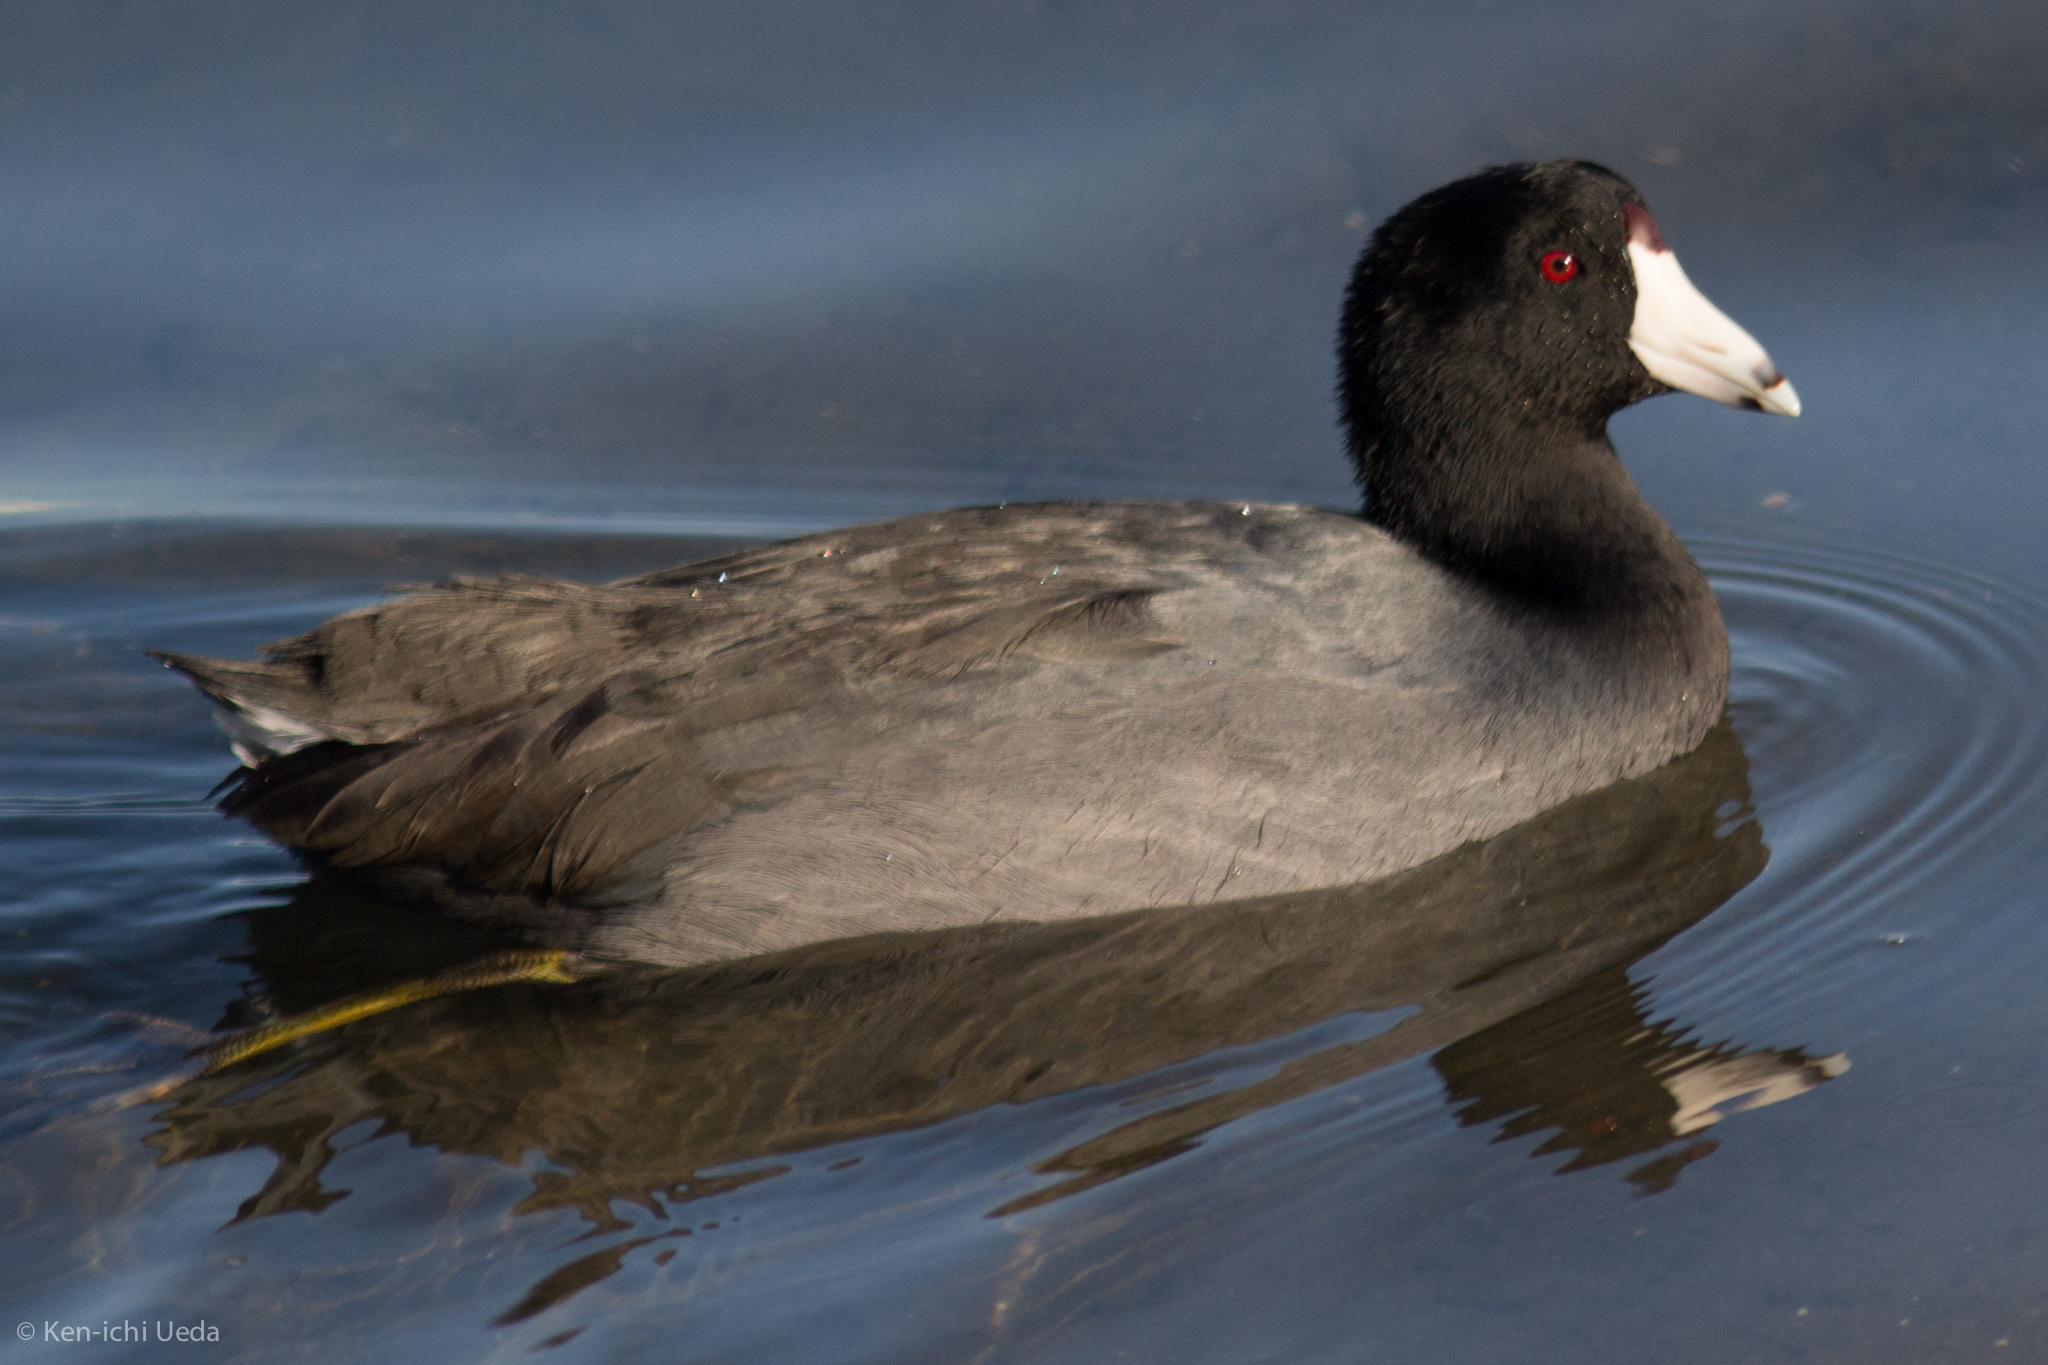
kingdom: Animalia
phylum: Chordata
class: Aves
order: Gruiformes
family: Rallidae
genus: Fulica
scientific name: Fulica americana
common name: American coot
